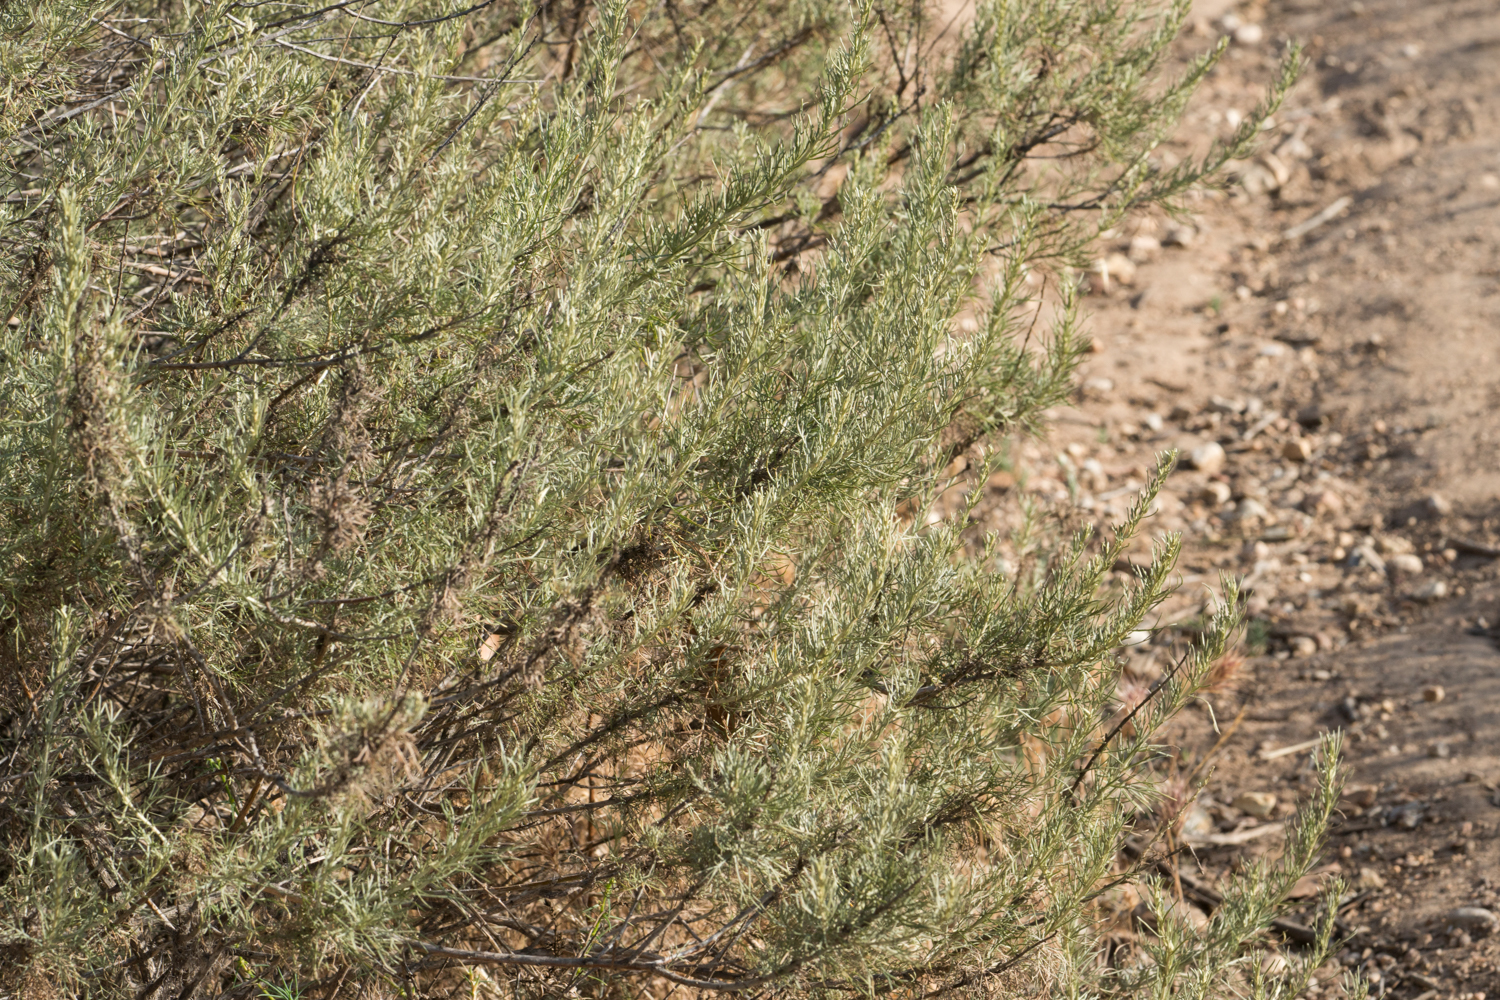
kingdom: Plantae
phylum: Tracheophyta
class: Magnoliopsida
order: Asterales
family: Asteraceae
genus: Artemisia
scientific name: Artemisia californica
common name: California sagebrush
